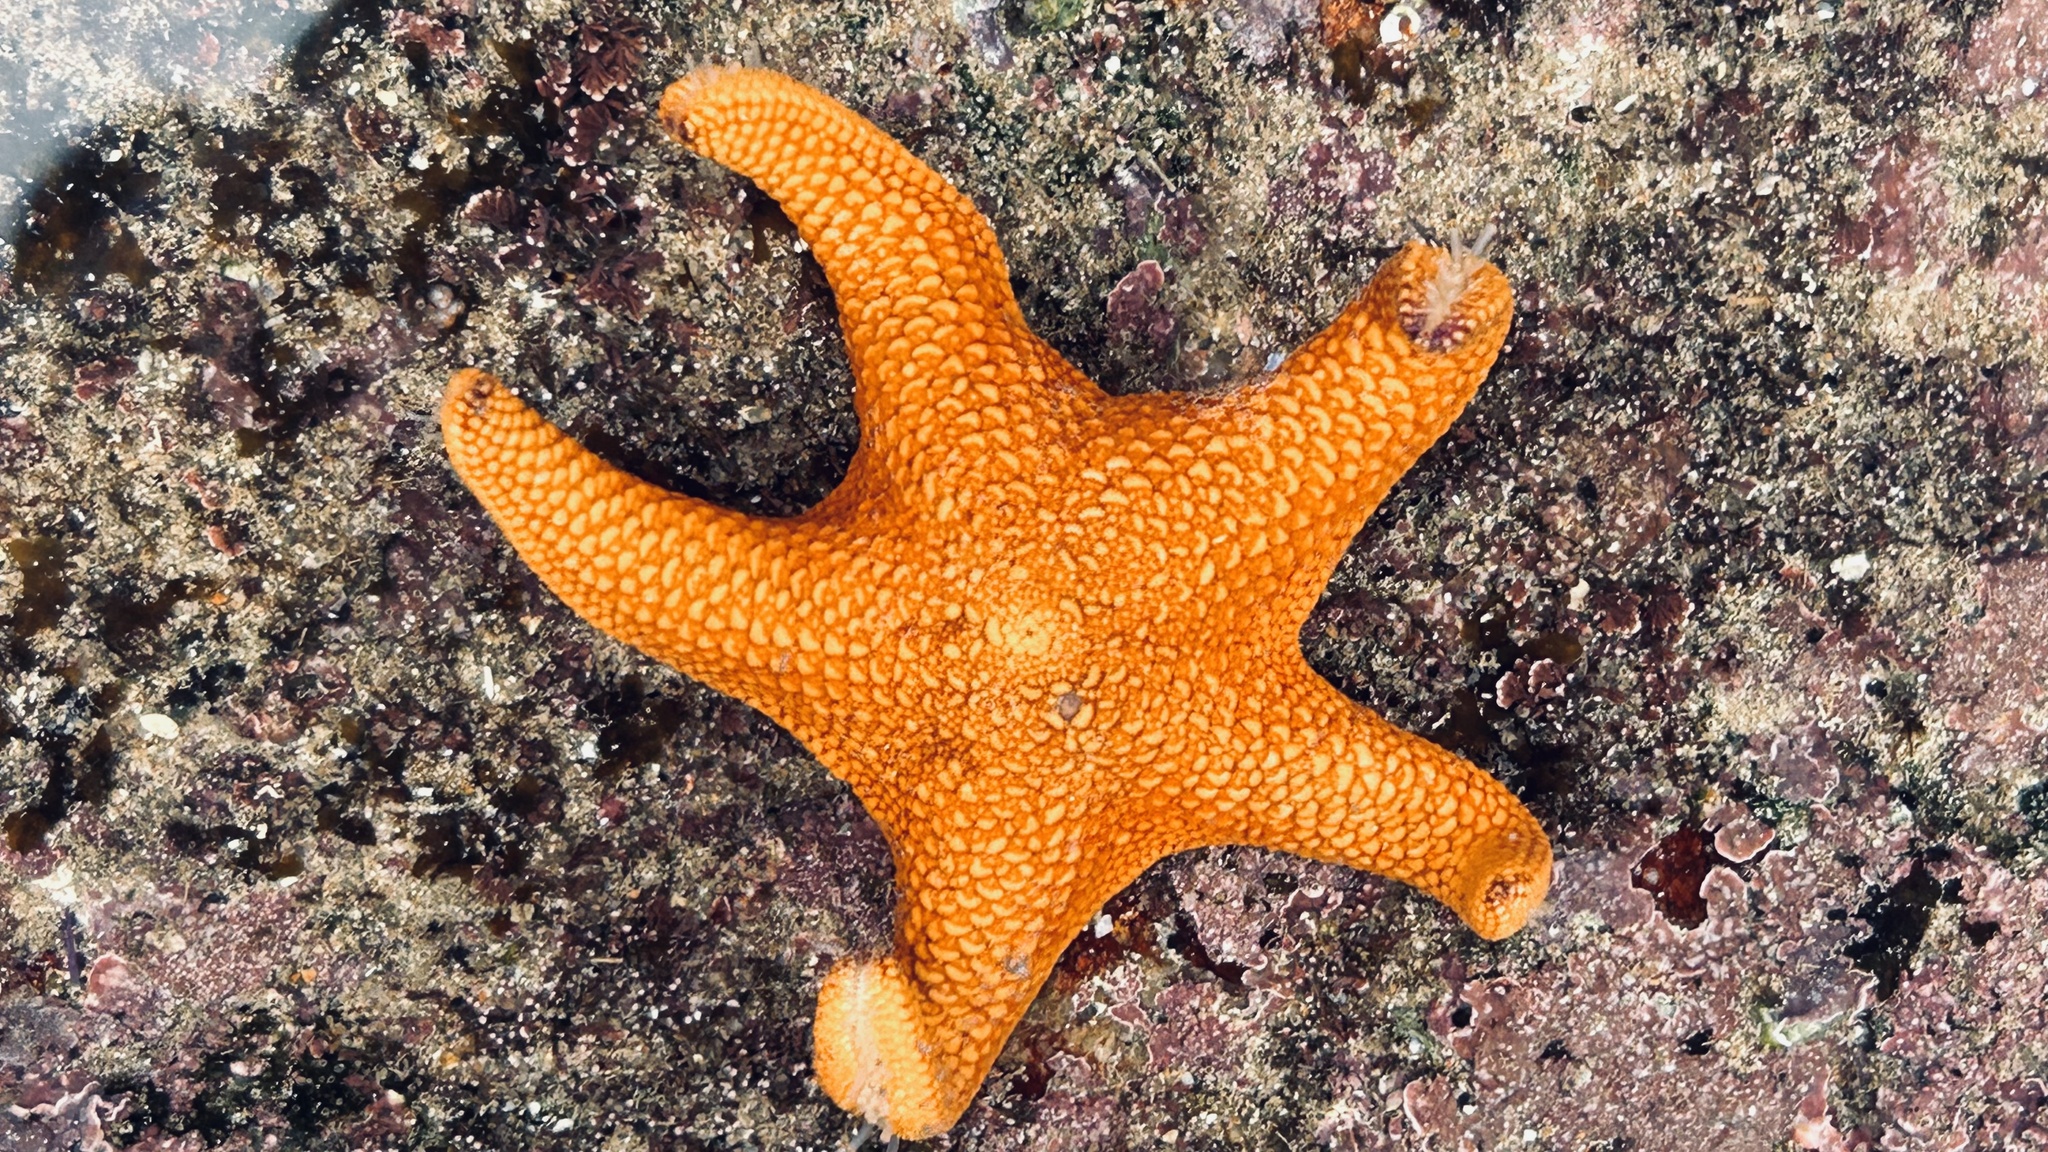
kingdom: Animalia
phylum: Echinodermata
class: Asteroidea
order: Spinulosida
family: Echinasteridae
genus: Henricia
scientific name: Henricia ornata
